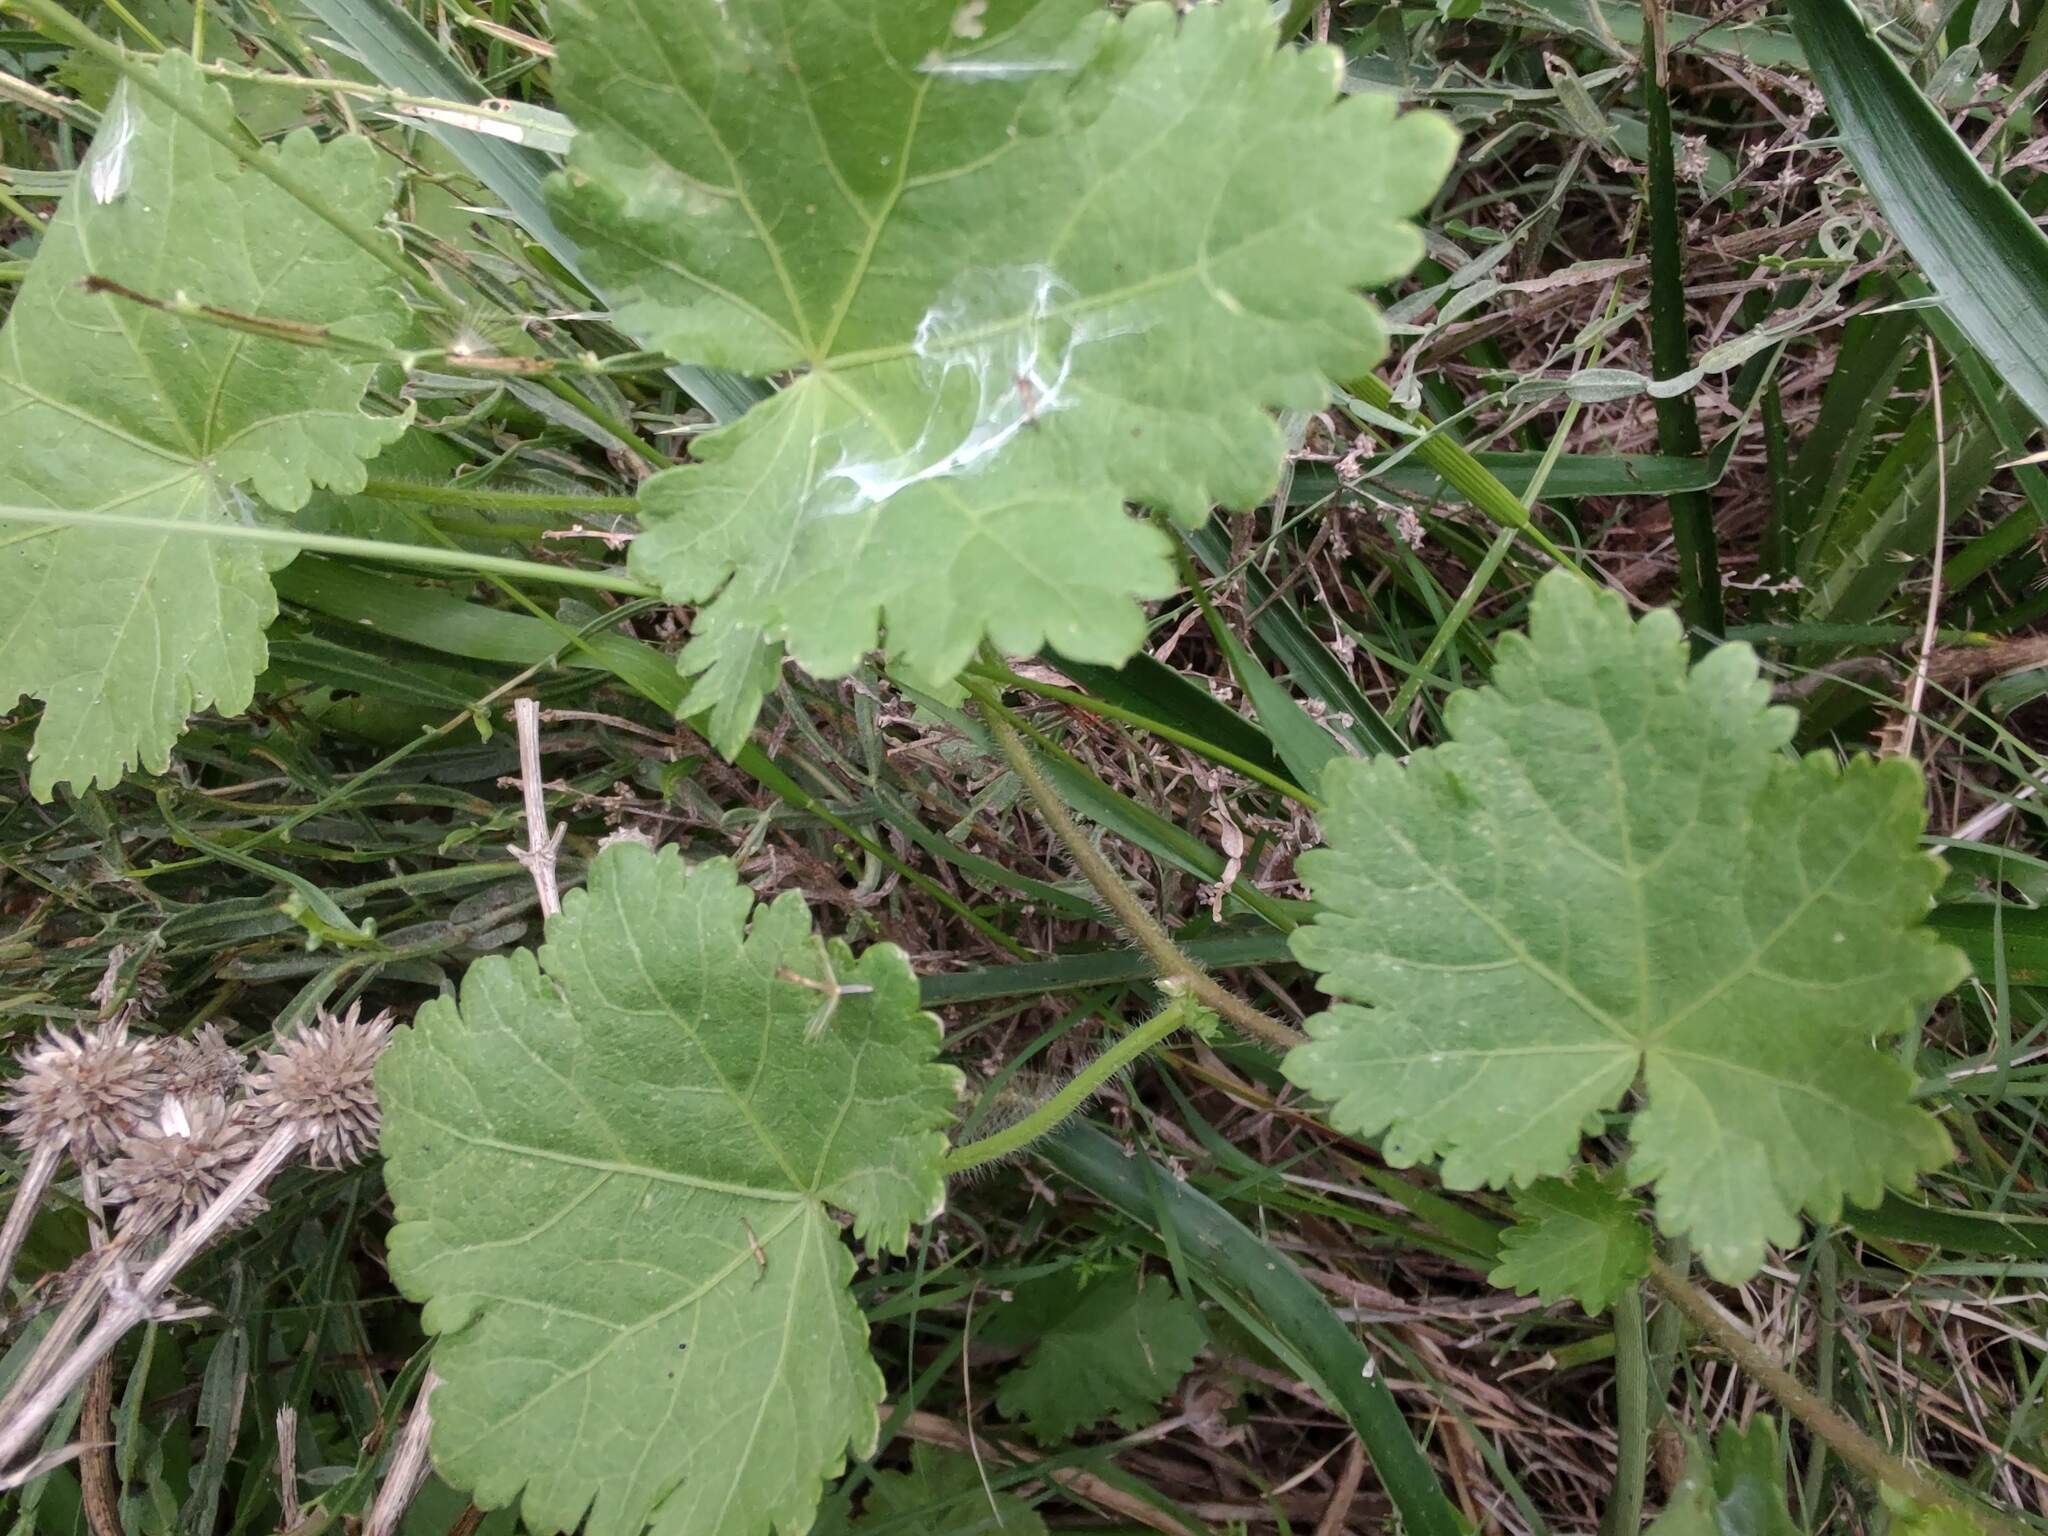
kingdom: Plantae
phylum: Tracheophyta
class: Magnoliopsida
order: Malvales
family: Malvaceae
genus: Modiolastrum
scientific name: Modiolastrum malvifolium
